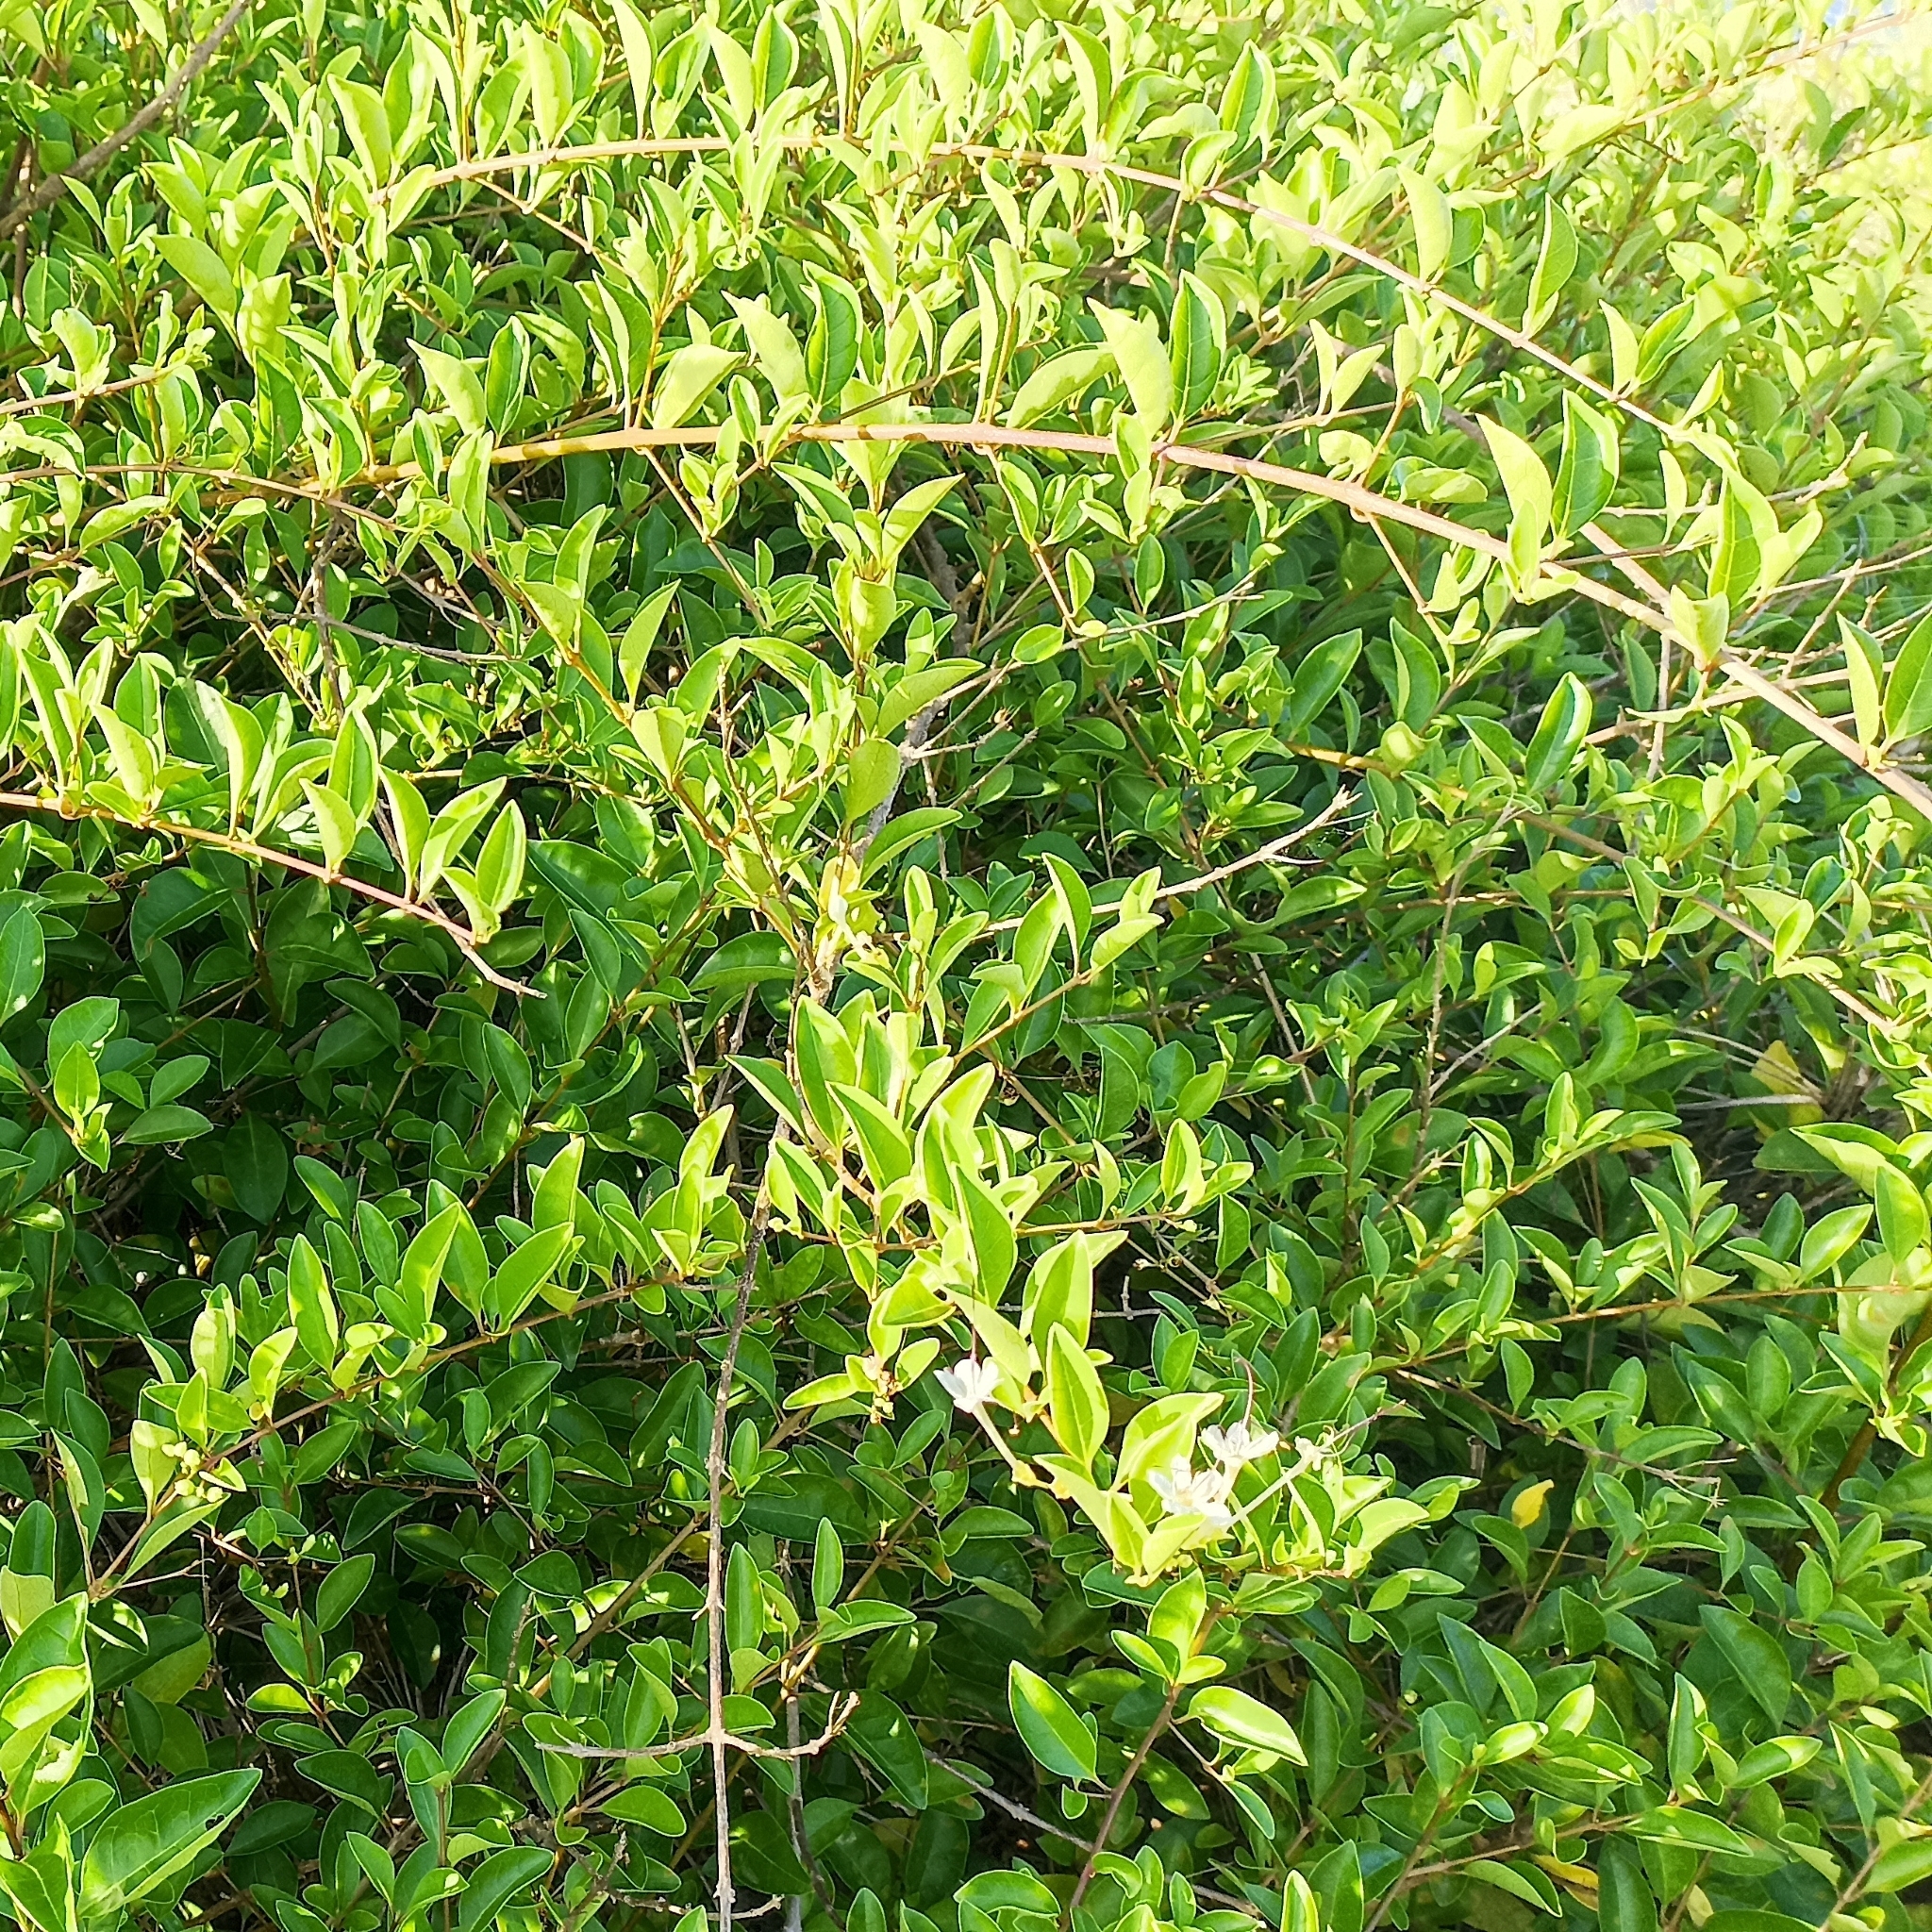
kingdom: Plantae
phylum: Tracheophyta
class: Magnoliopsida
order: Lamiales
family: Lamiaceae
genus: Volkameria
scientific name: Volkameria inermis
